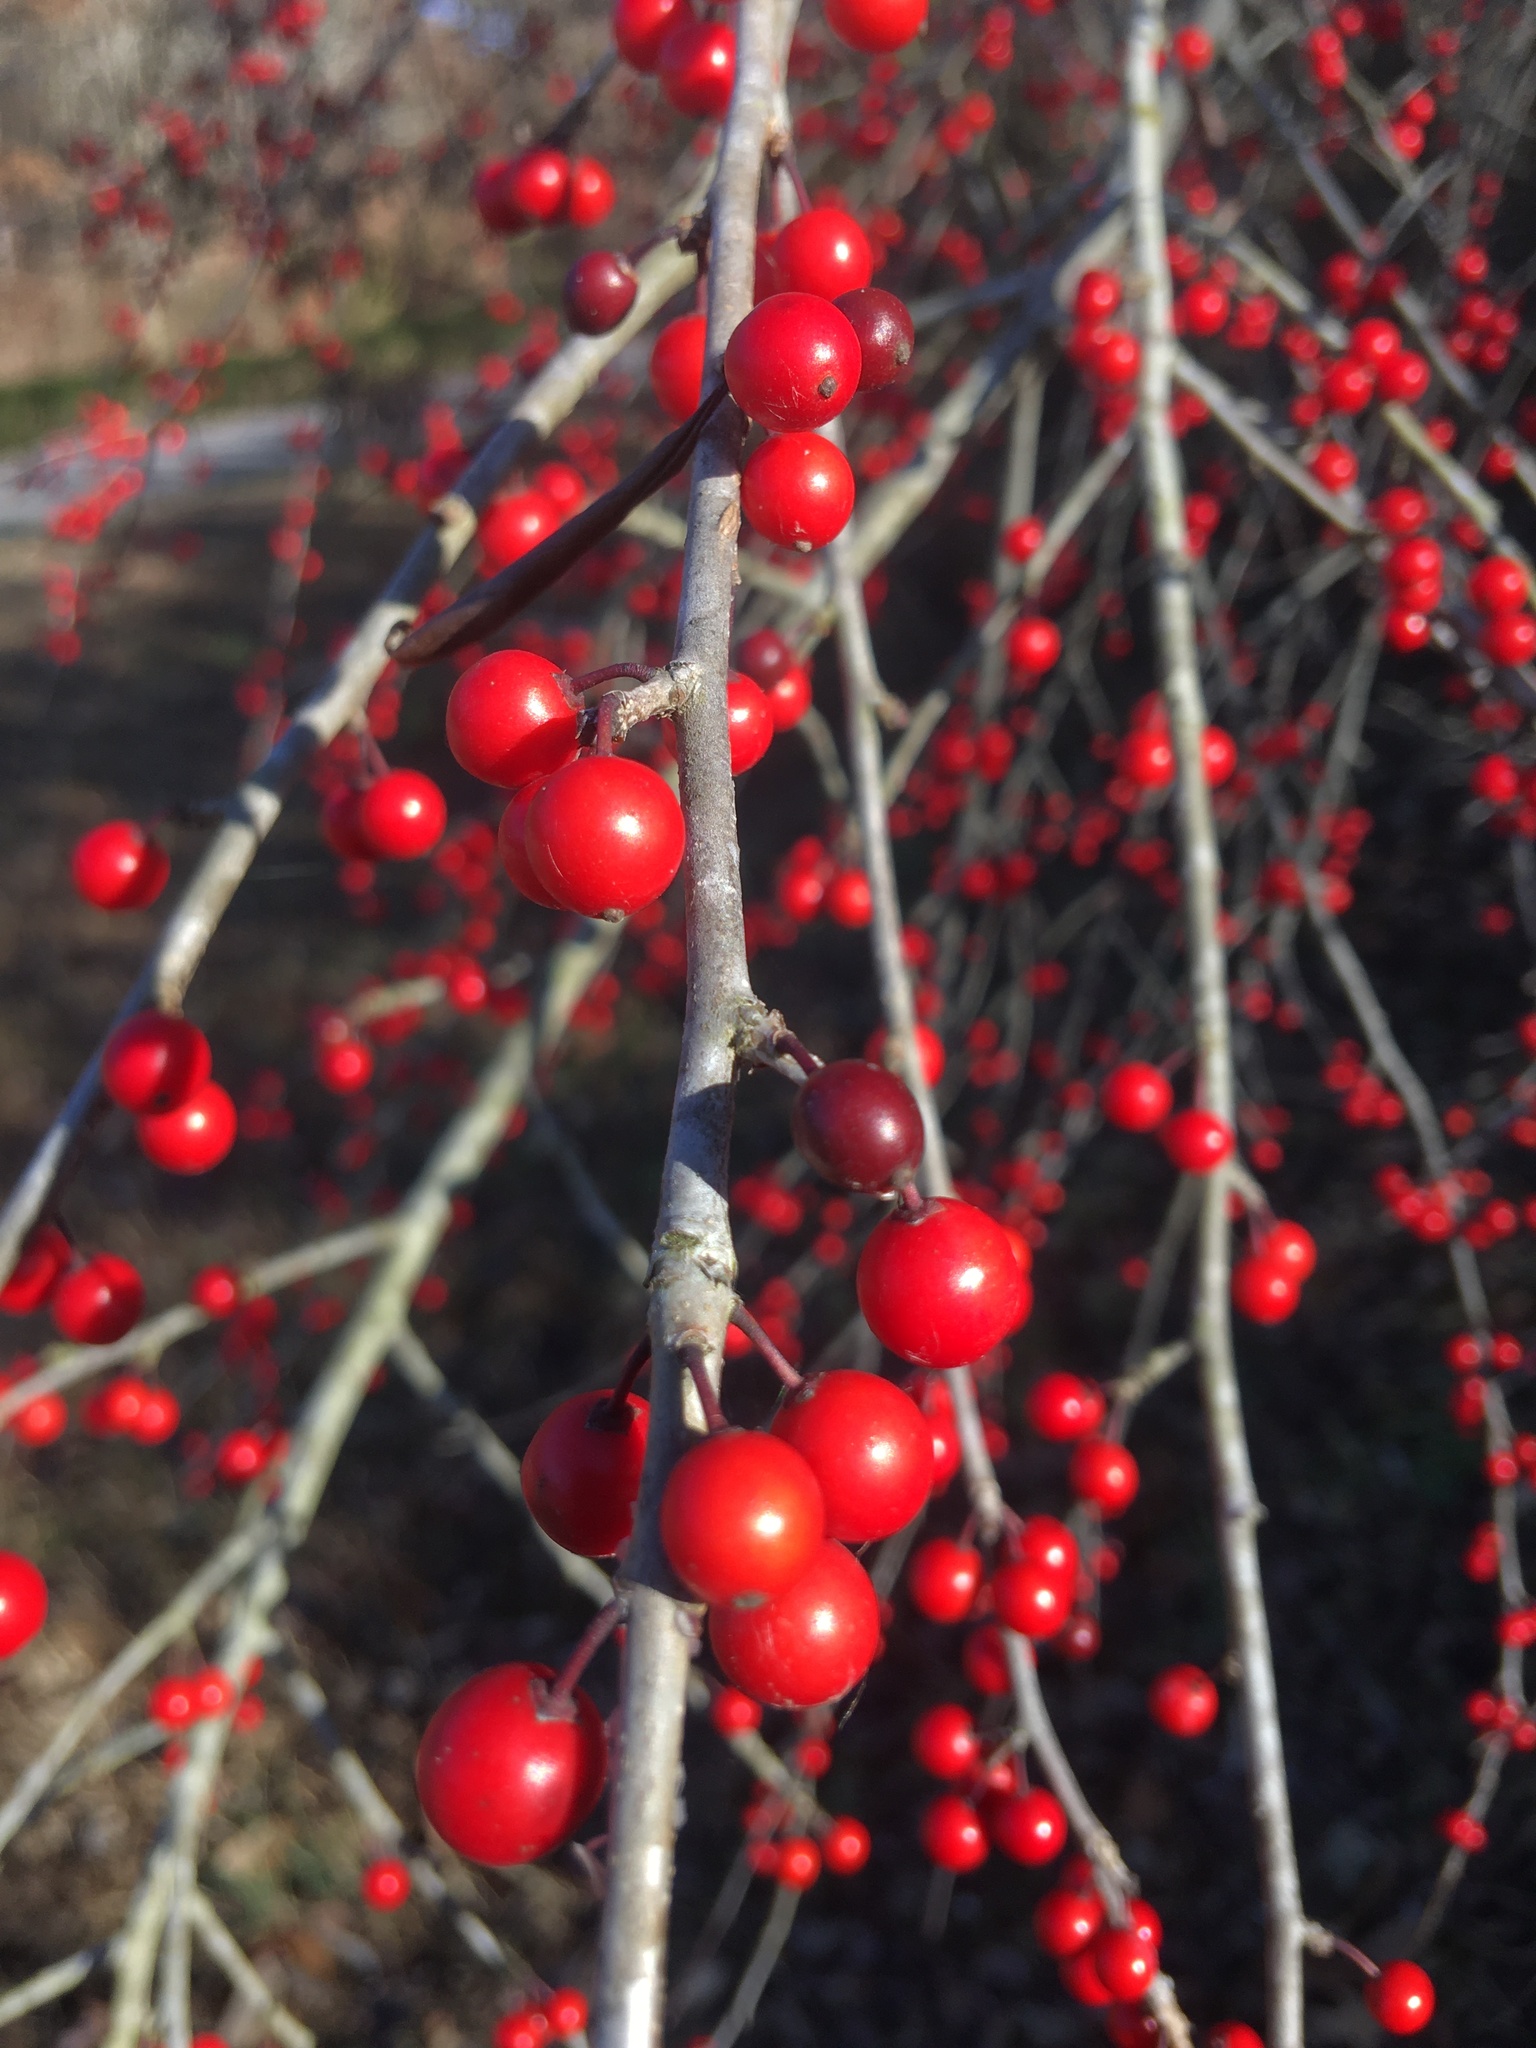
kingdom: Plantae
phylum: Tracheophyta
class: Magnoliopsida
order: Aquifoliales
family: Aquifoliaceae
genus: Ilex
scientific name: Ilex decidua
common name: Possum-haw
